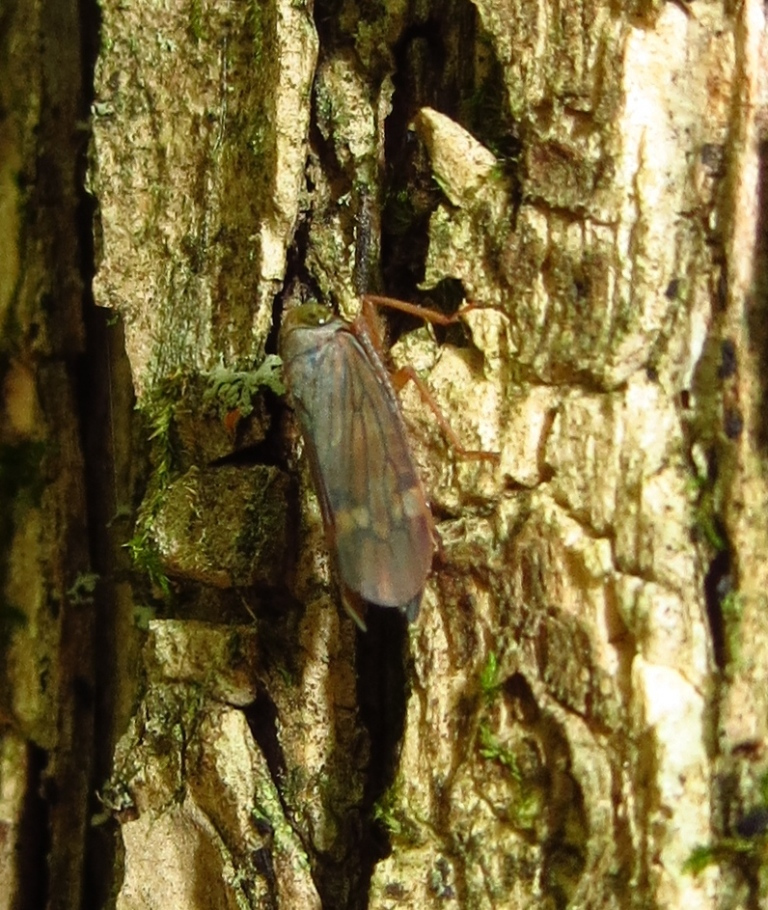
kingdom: Animalia
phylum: Arthropoda
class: Insecta
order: Hemiptera
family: Cicadellidae
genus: Jikradia
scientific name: Jikradia olitoria
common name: Coppery leafhopper
